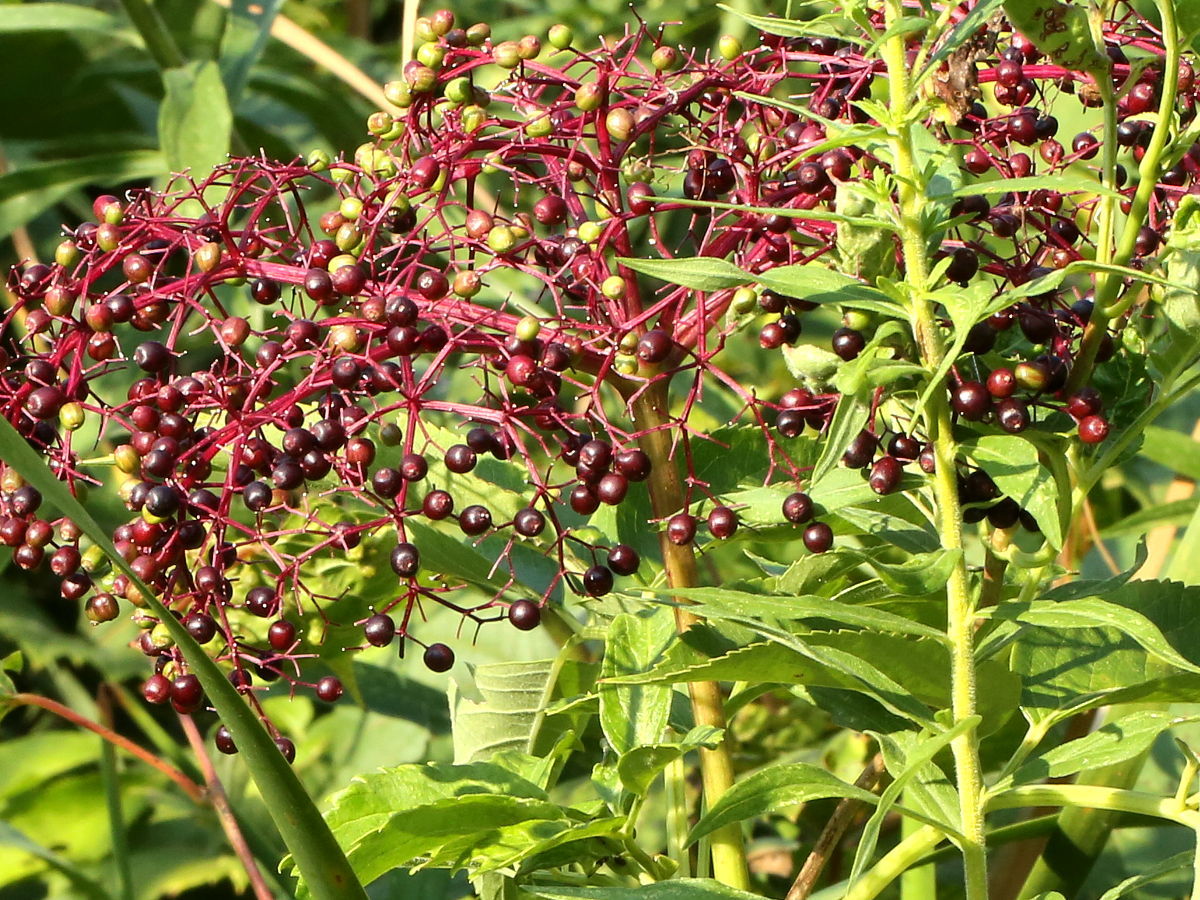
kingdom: Plantae
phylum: Tracheophyta
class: Magnoliopsida
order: Dipsacales
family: Viburnaceae
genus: Sambucus
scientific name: Sambucus canadensis
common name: American elder
